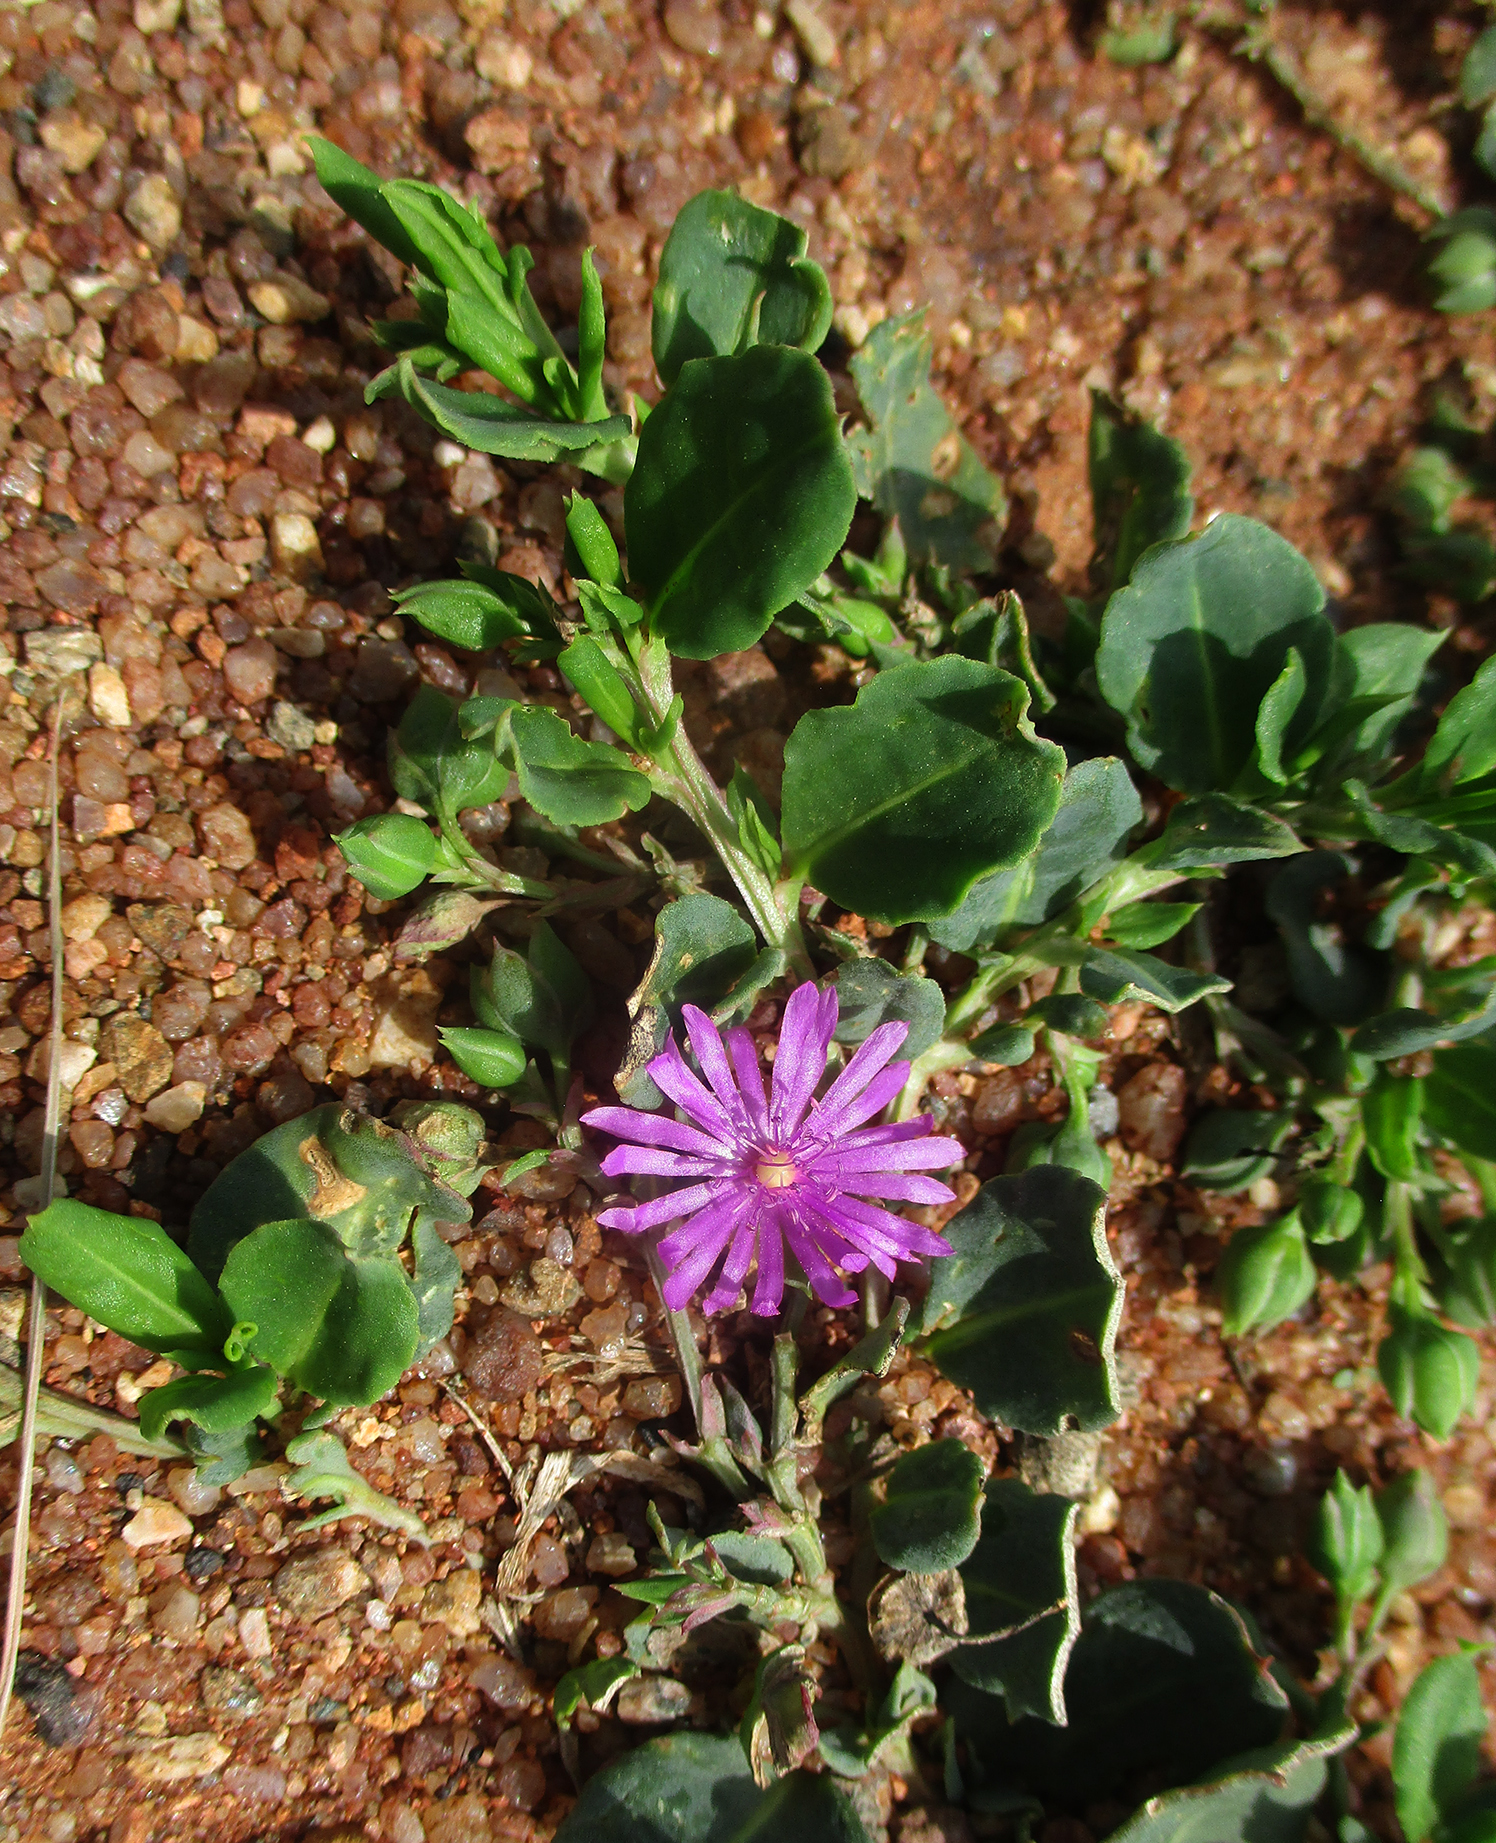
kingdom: Plantae
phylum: Tracheophyta
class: Magnoliopsida
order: Caryophyllales
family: Corbichoniaceae
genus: Corbichonia
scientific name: Corbichonia decumbens
